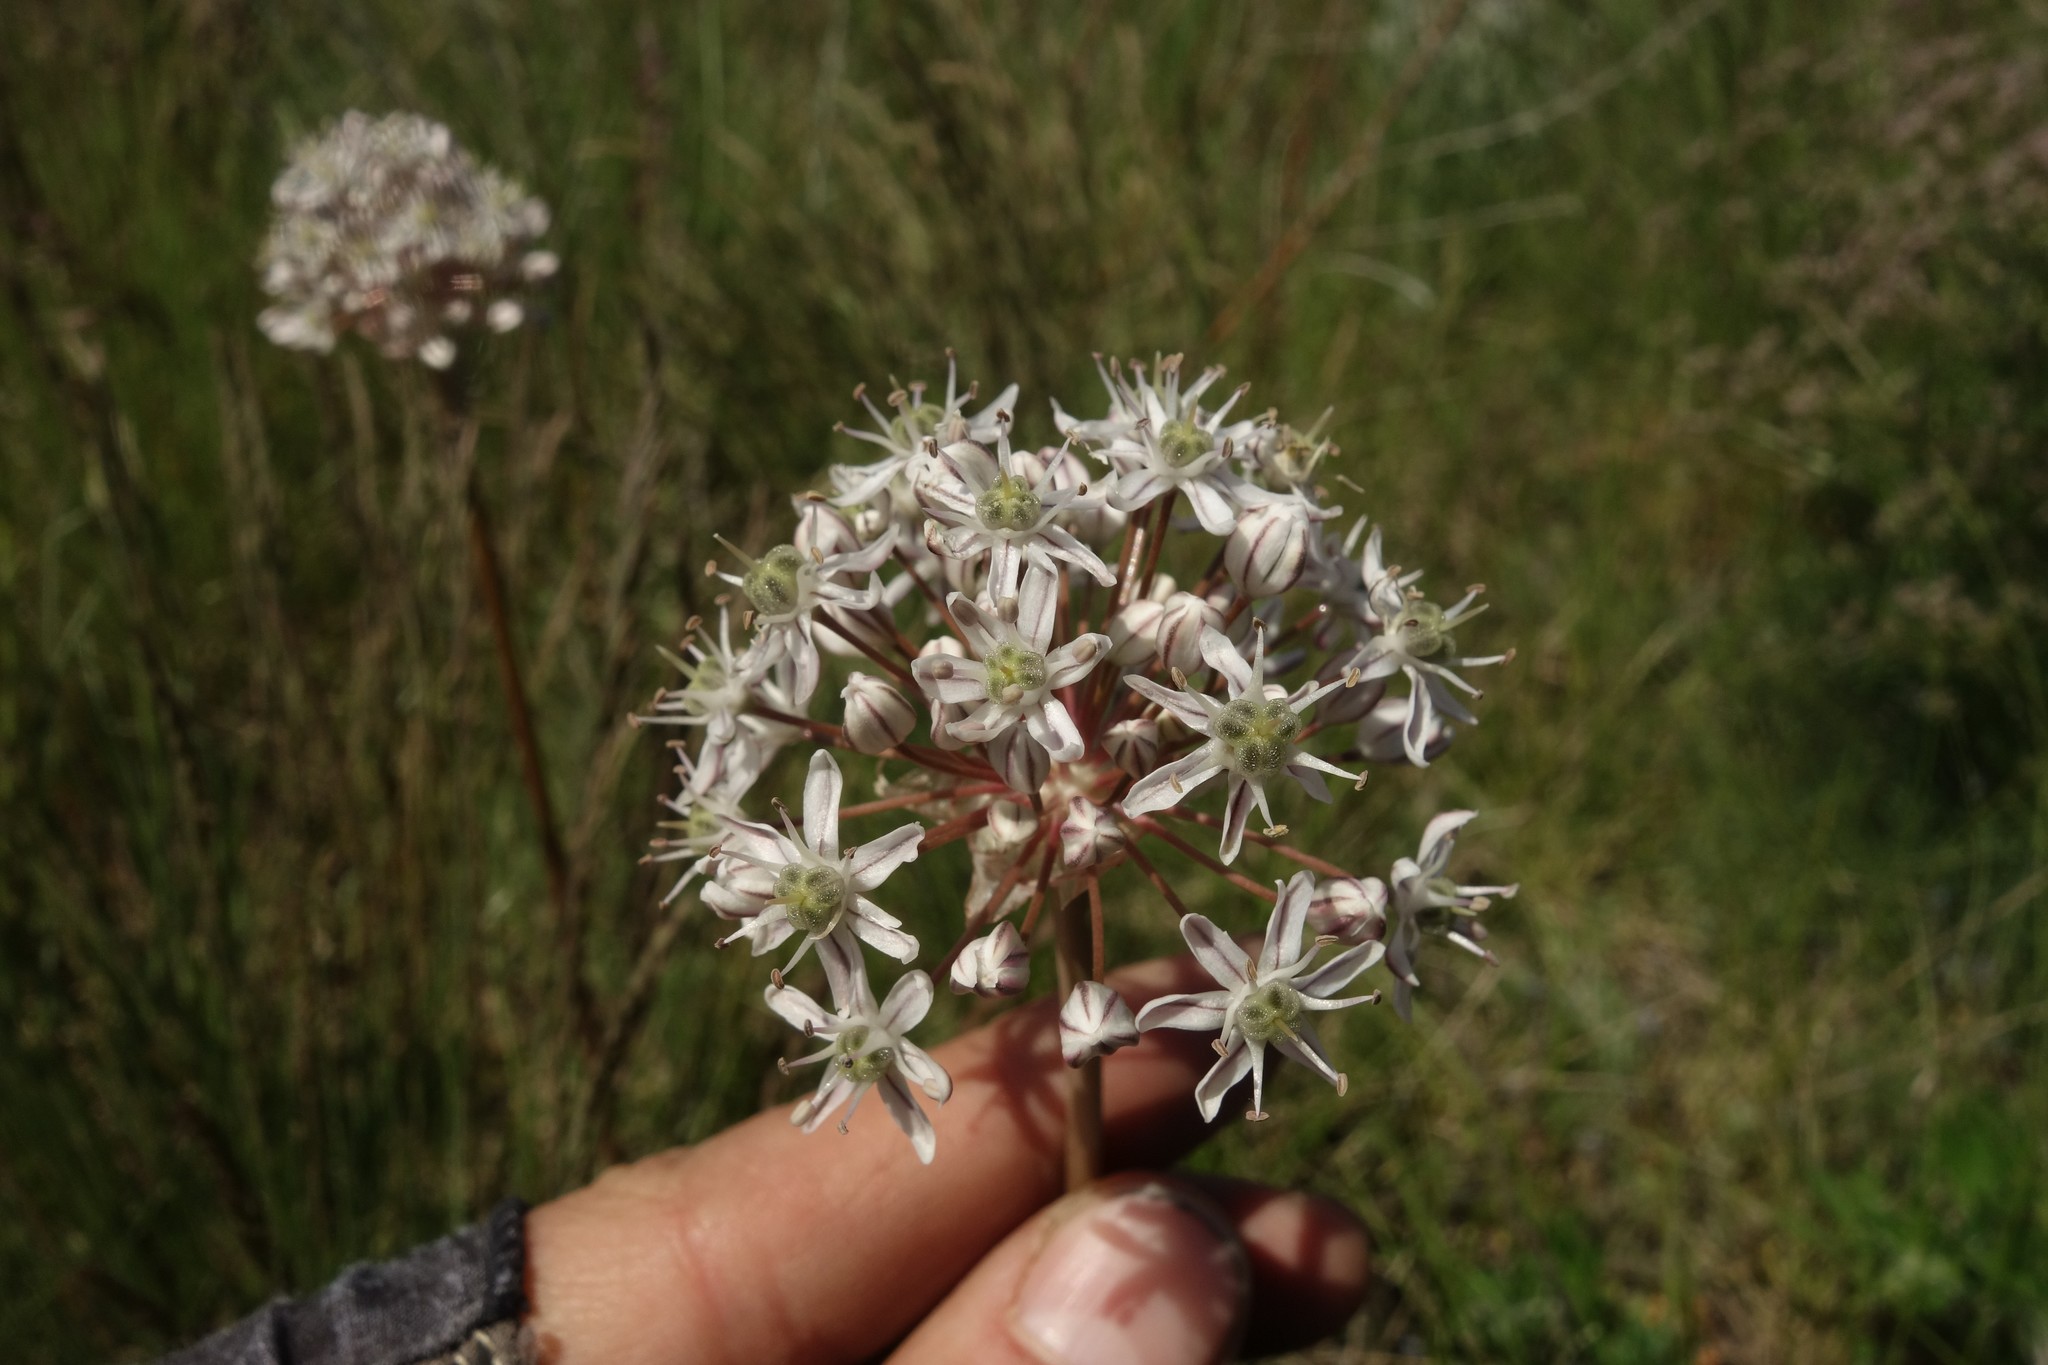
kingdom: Plantae
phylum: Tracheophyta
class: Liliopsida
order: Asparagales
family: Amaryllidaceae
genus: Allium
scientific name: Allium tulipifolium
